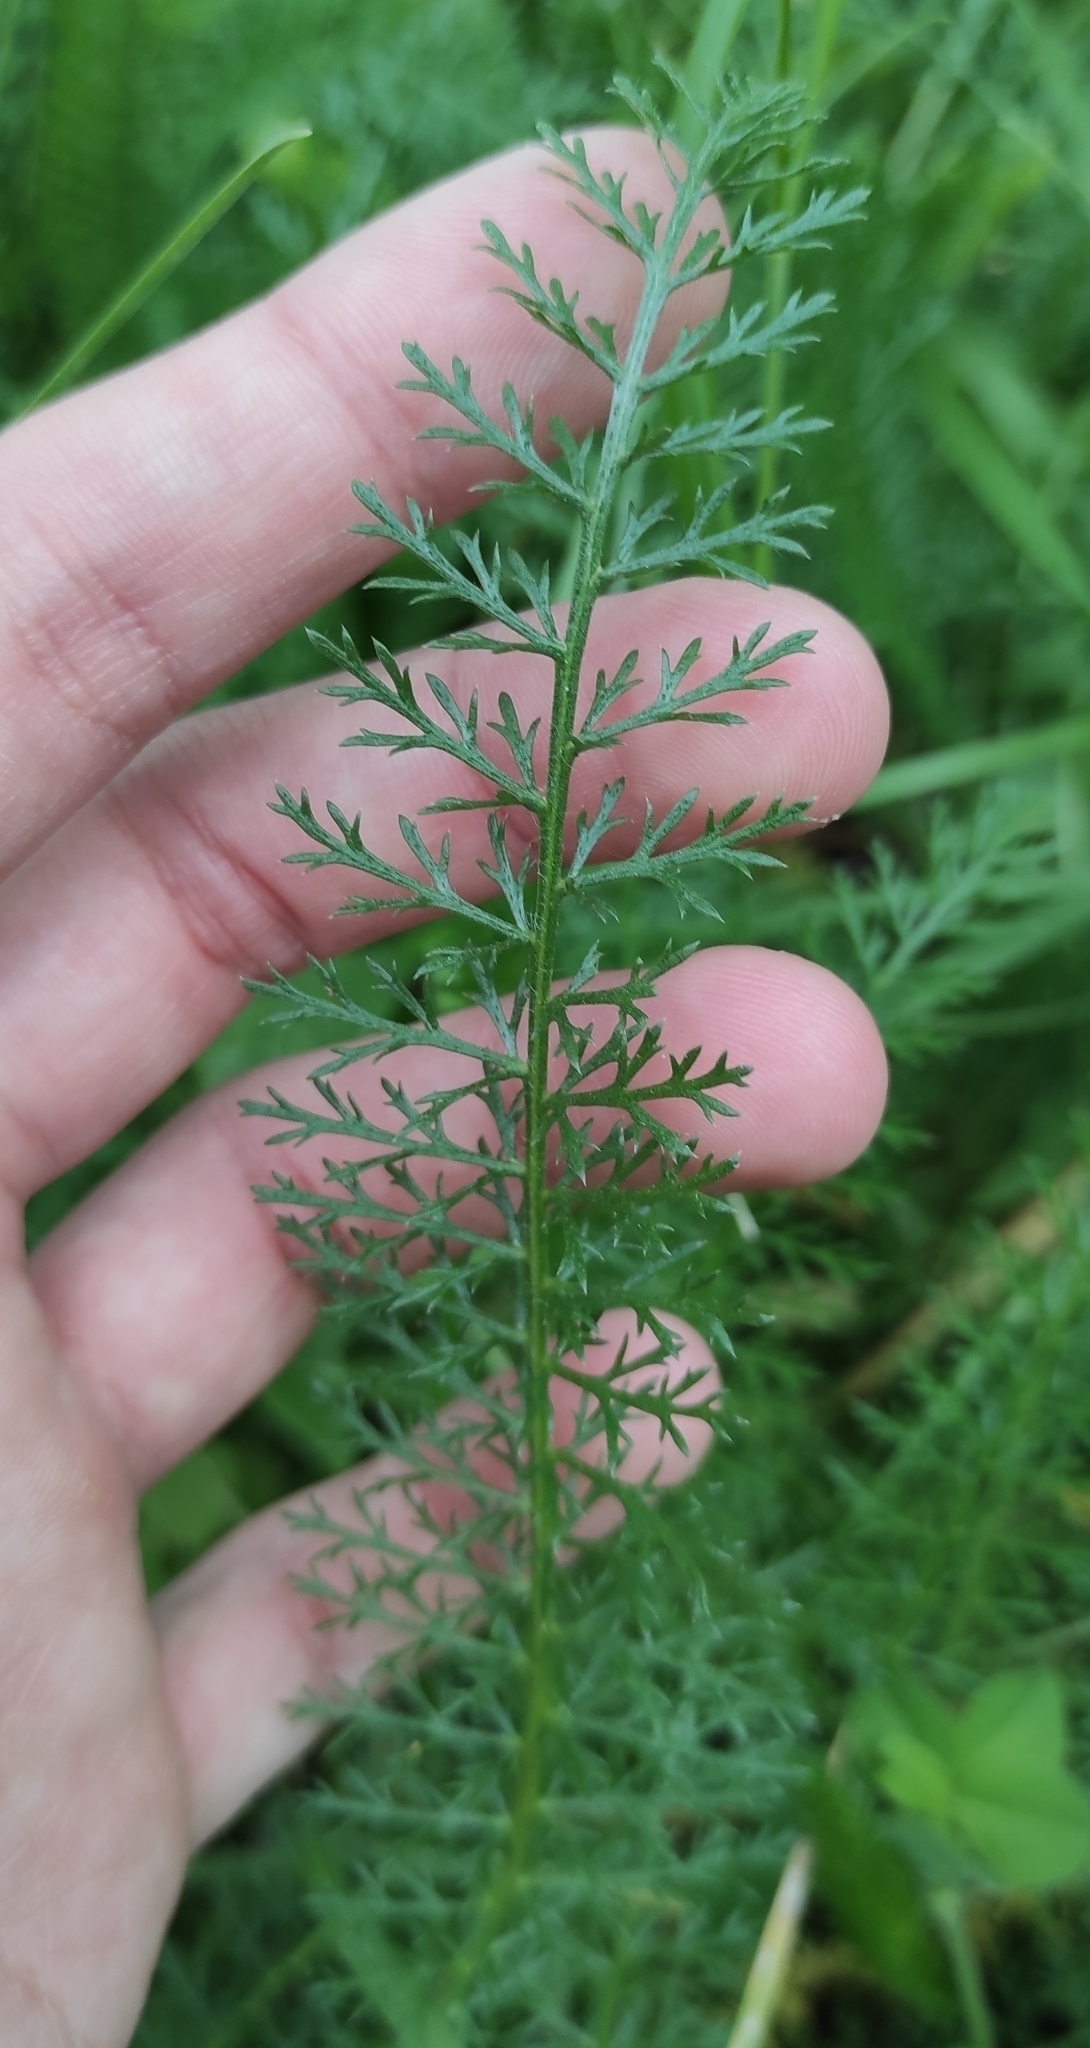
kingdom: Plantae
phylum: Tracheophyta
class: Magnoliopsida
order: Asterales
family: Asteraceae
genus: Achillea
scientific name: Achillea millefolium
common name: Yarrow
